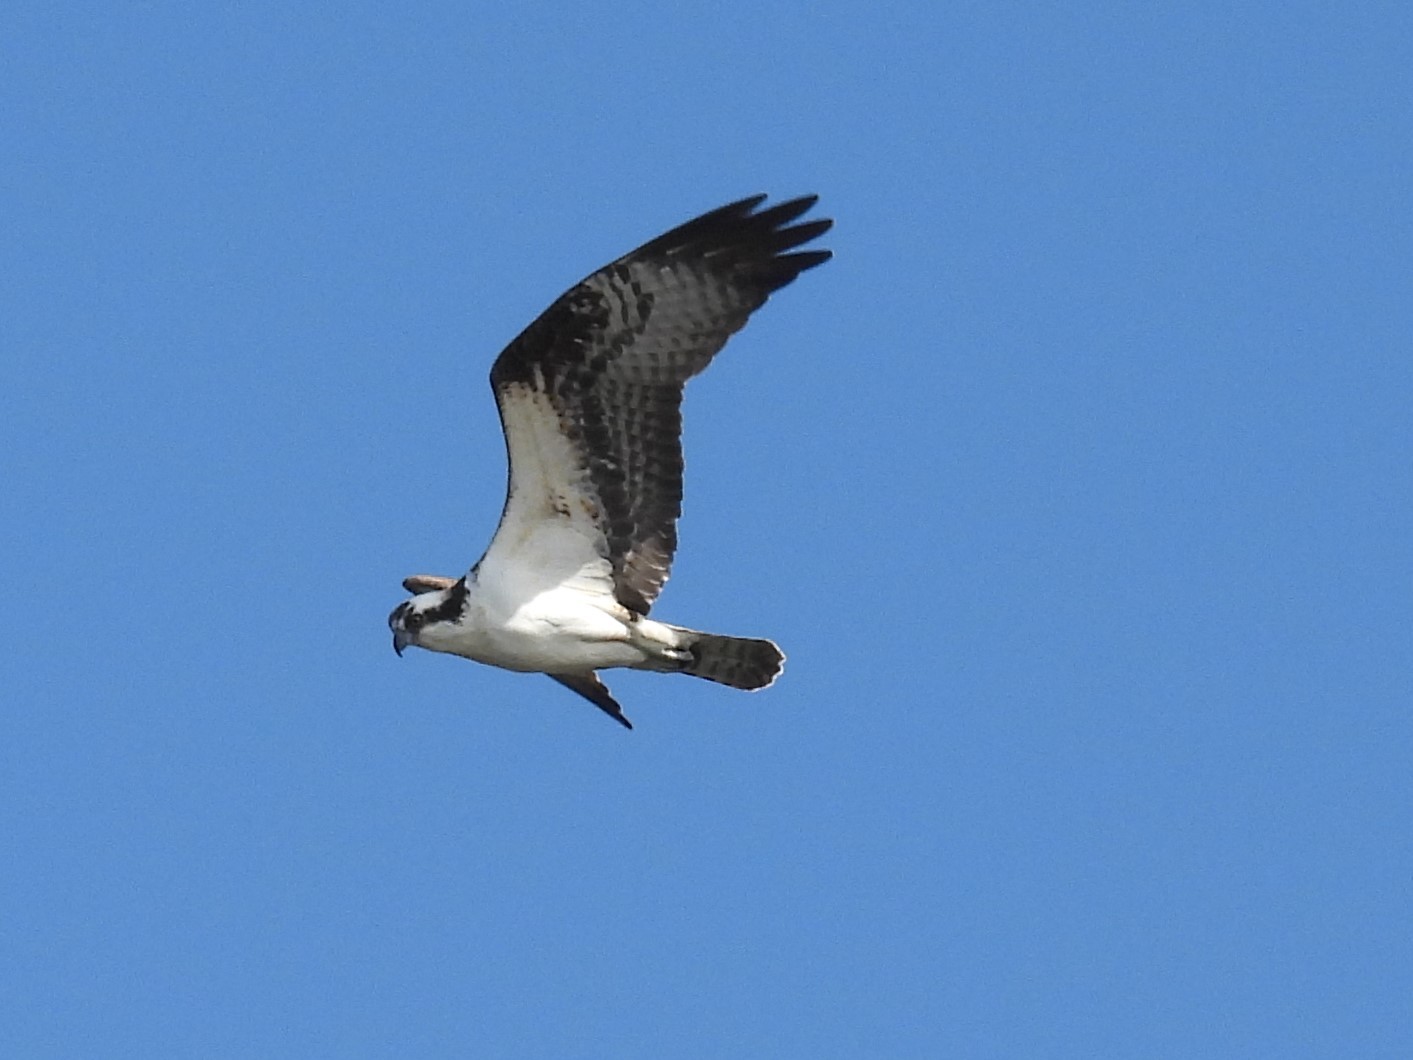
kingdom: Animalia
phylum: Chordata
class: Aves
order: Accipitriformes
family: Pandionidae
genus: Pandion
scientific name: Pandion haliaetus
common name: Osprey
